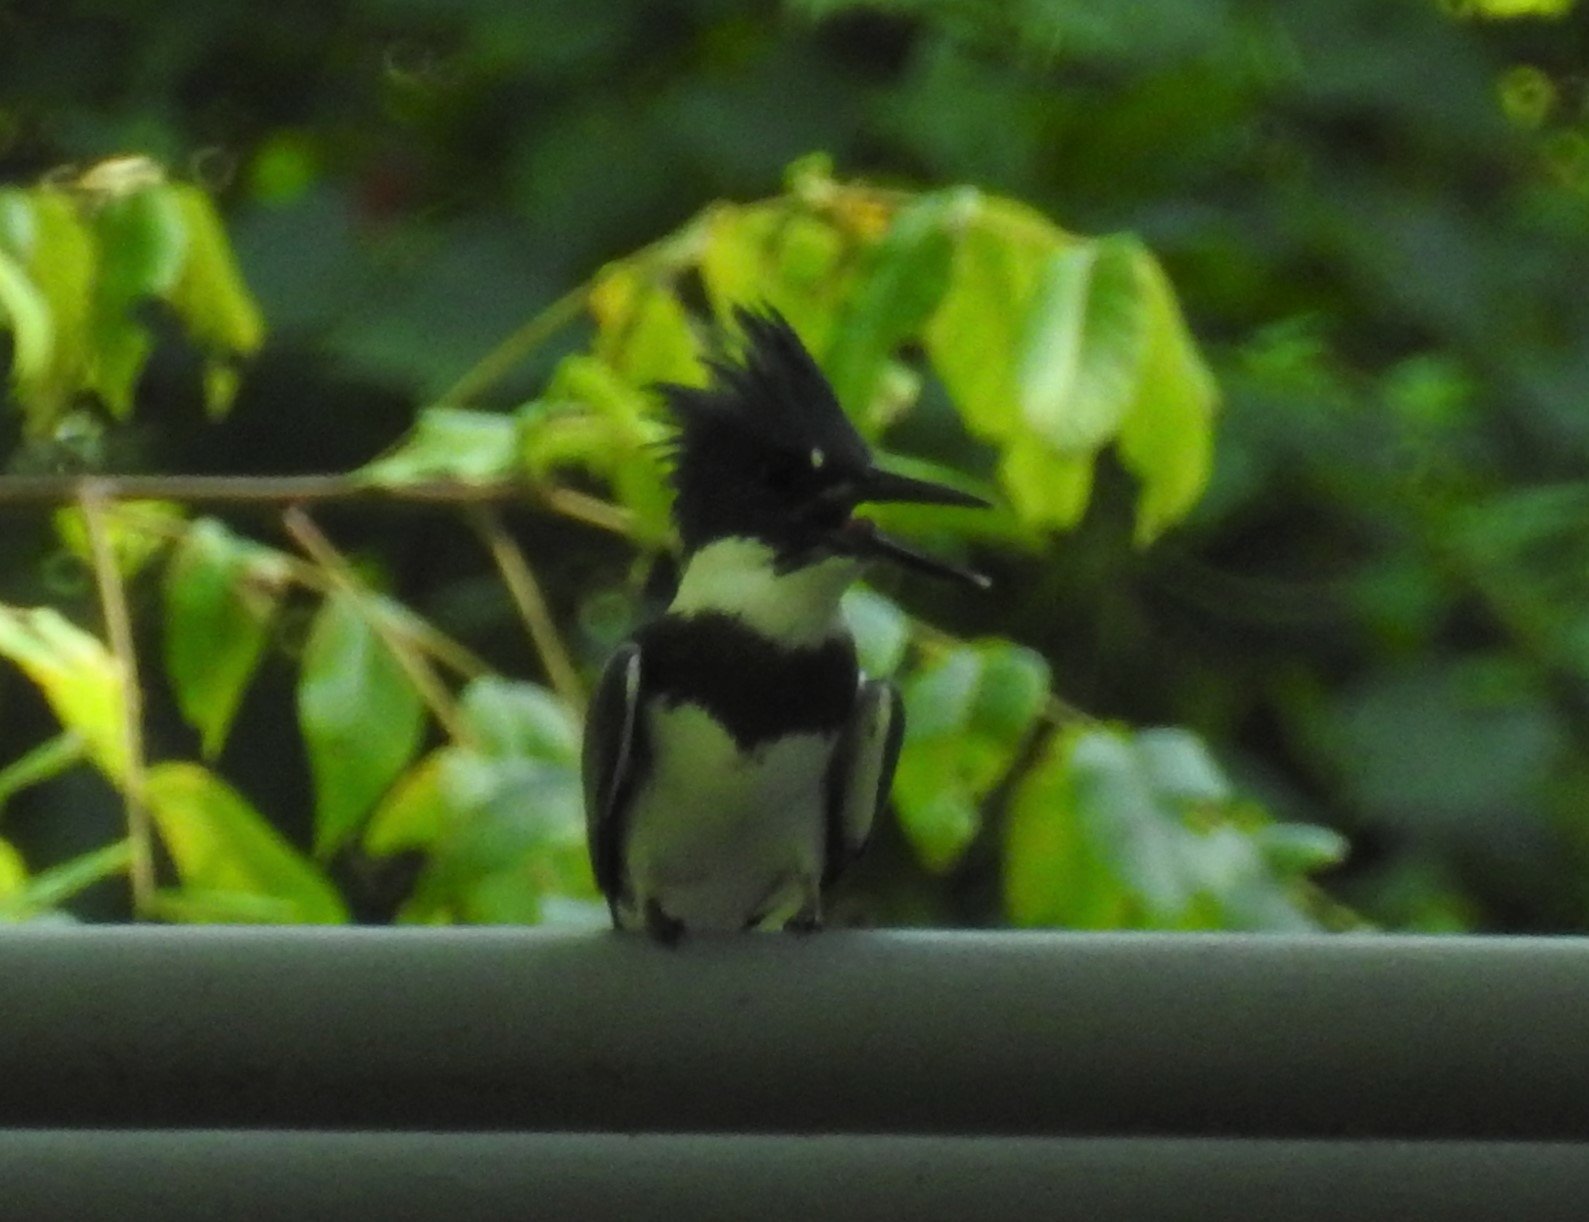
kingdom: Animalia
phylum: Chordata
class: Aves
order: Coraciiformes
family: Alcedinidae
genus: Megaceryle
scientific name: Megaceryle alcyon
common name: Belted kingfisher
